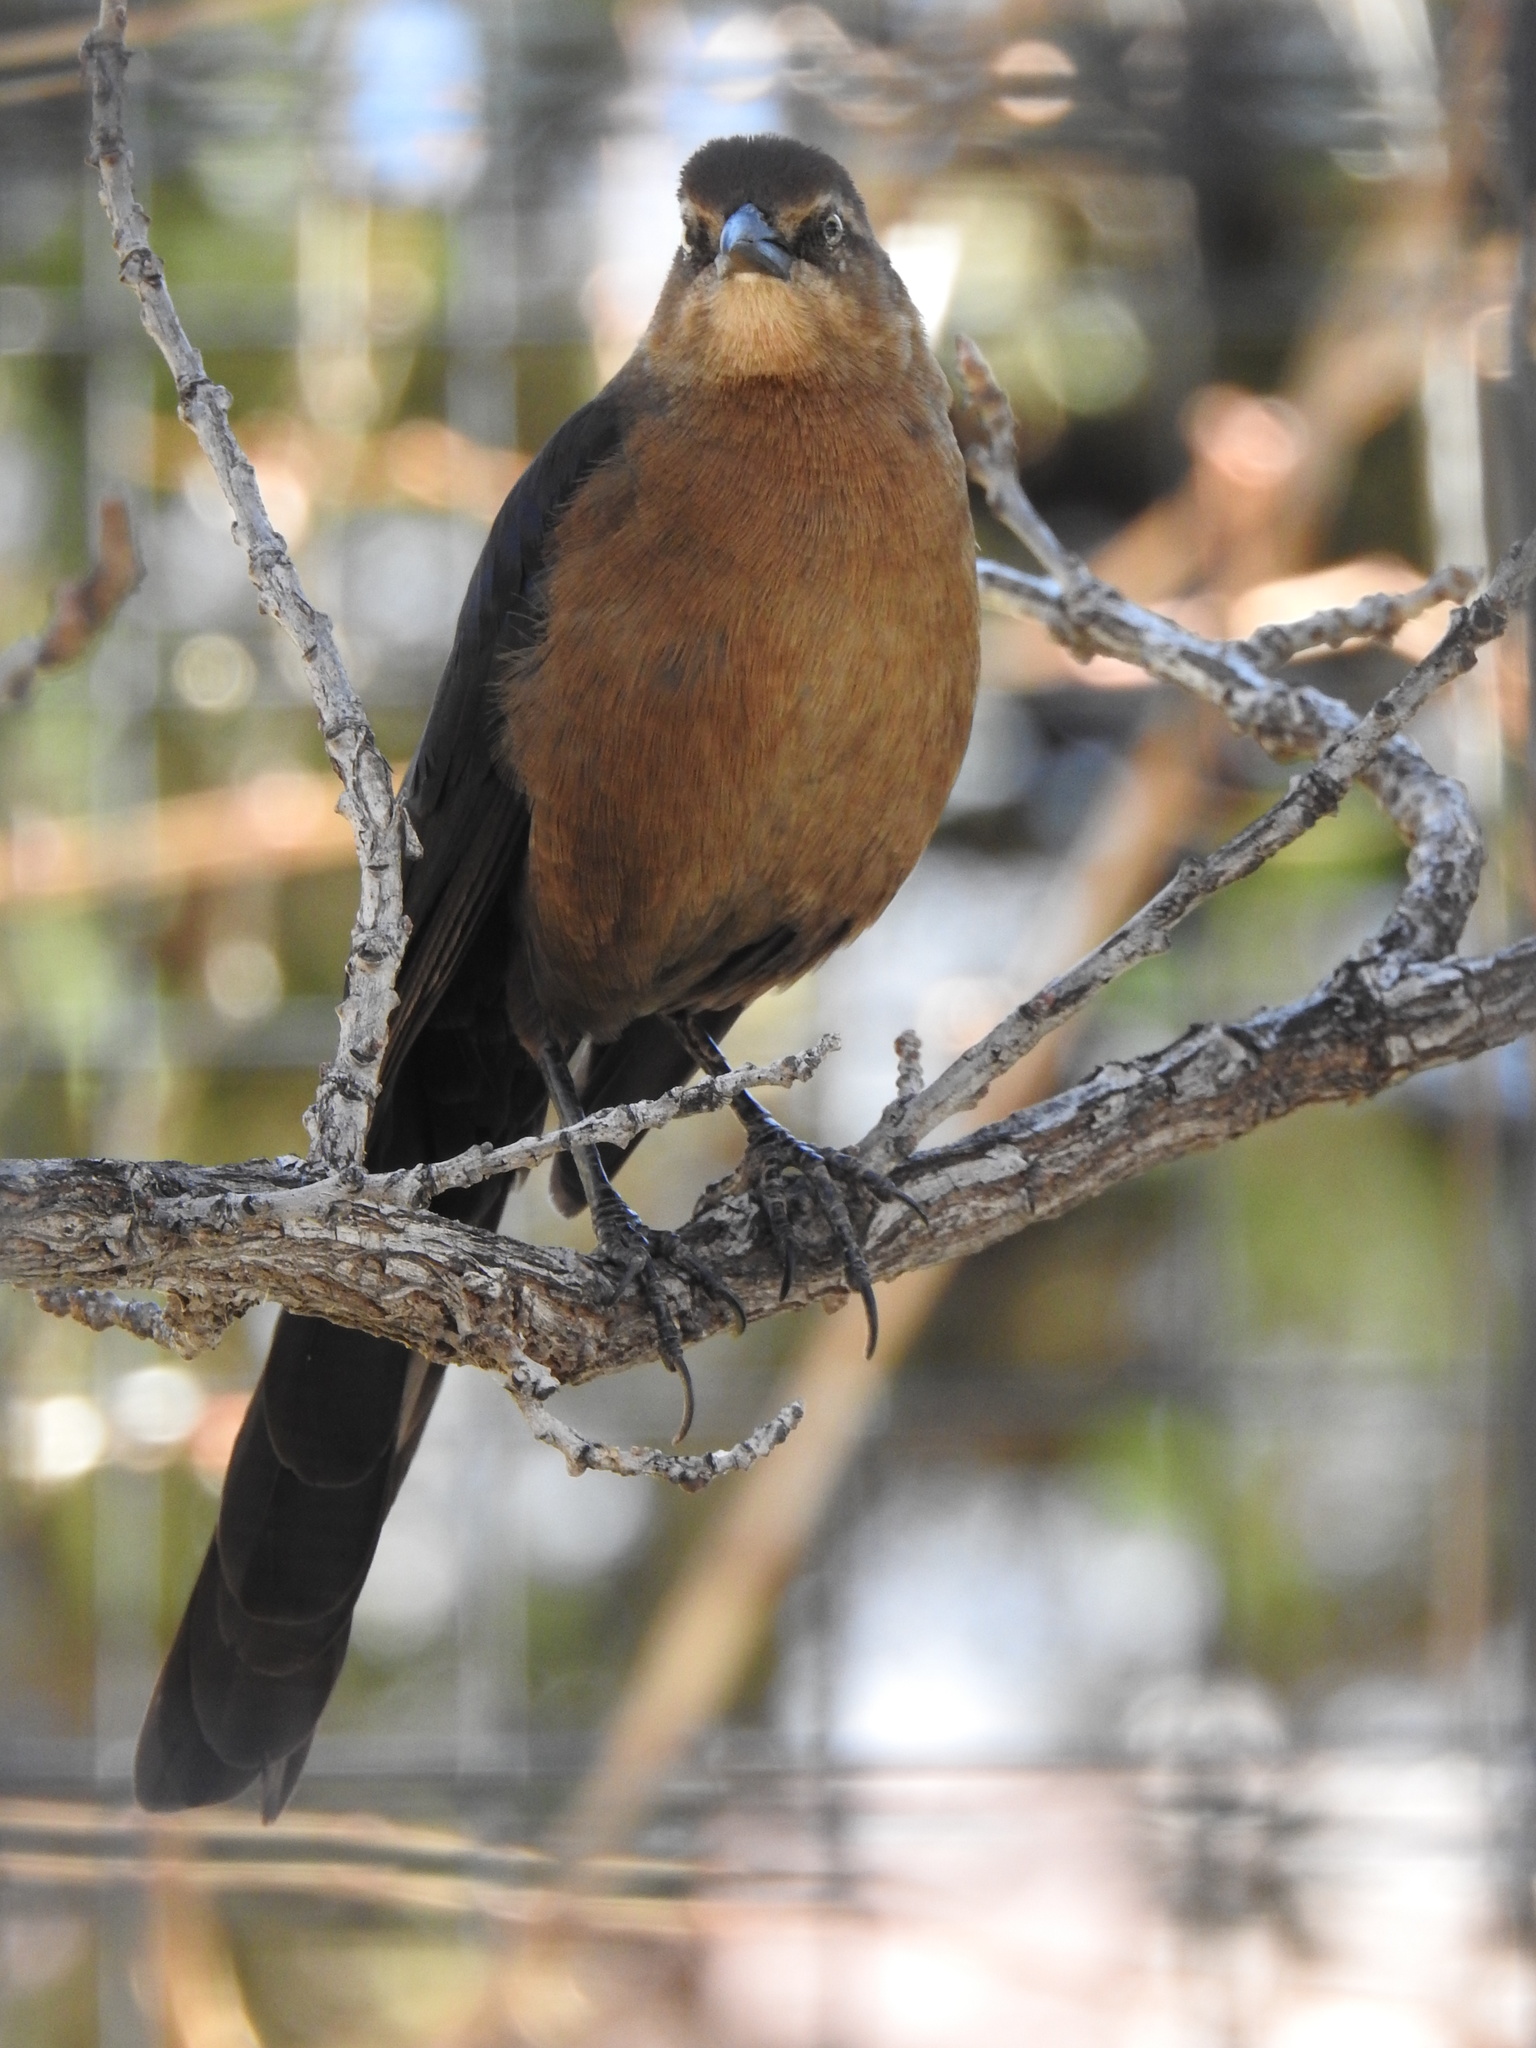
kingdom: Animalia
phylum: Chordata
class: Aves
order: Passeriformes
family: Icteridae
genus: Quiscalus
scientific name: Quiscalus mexicanus
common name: Great-tailed grackle
